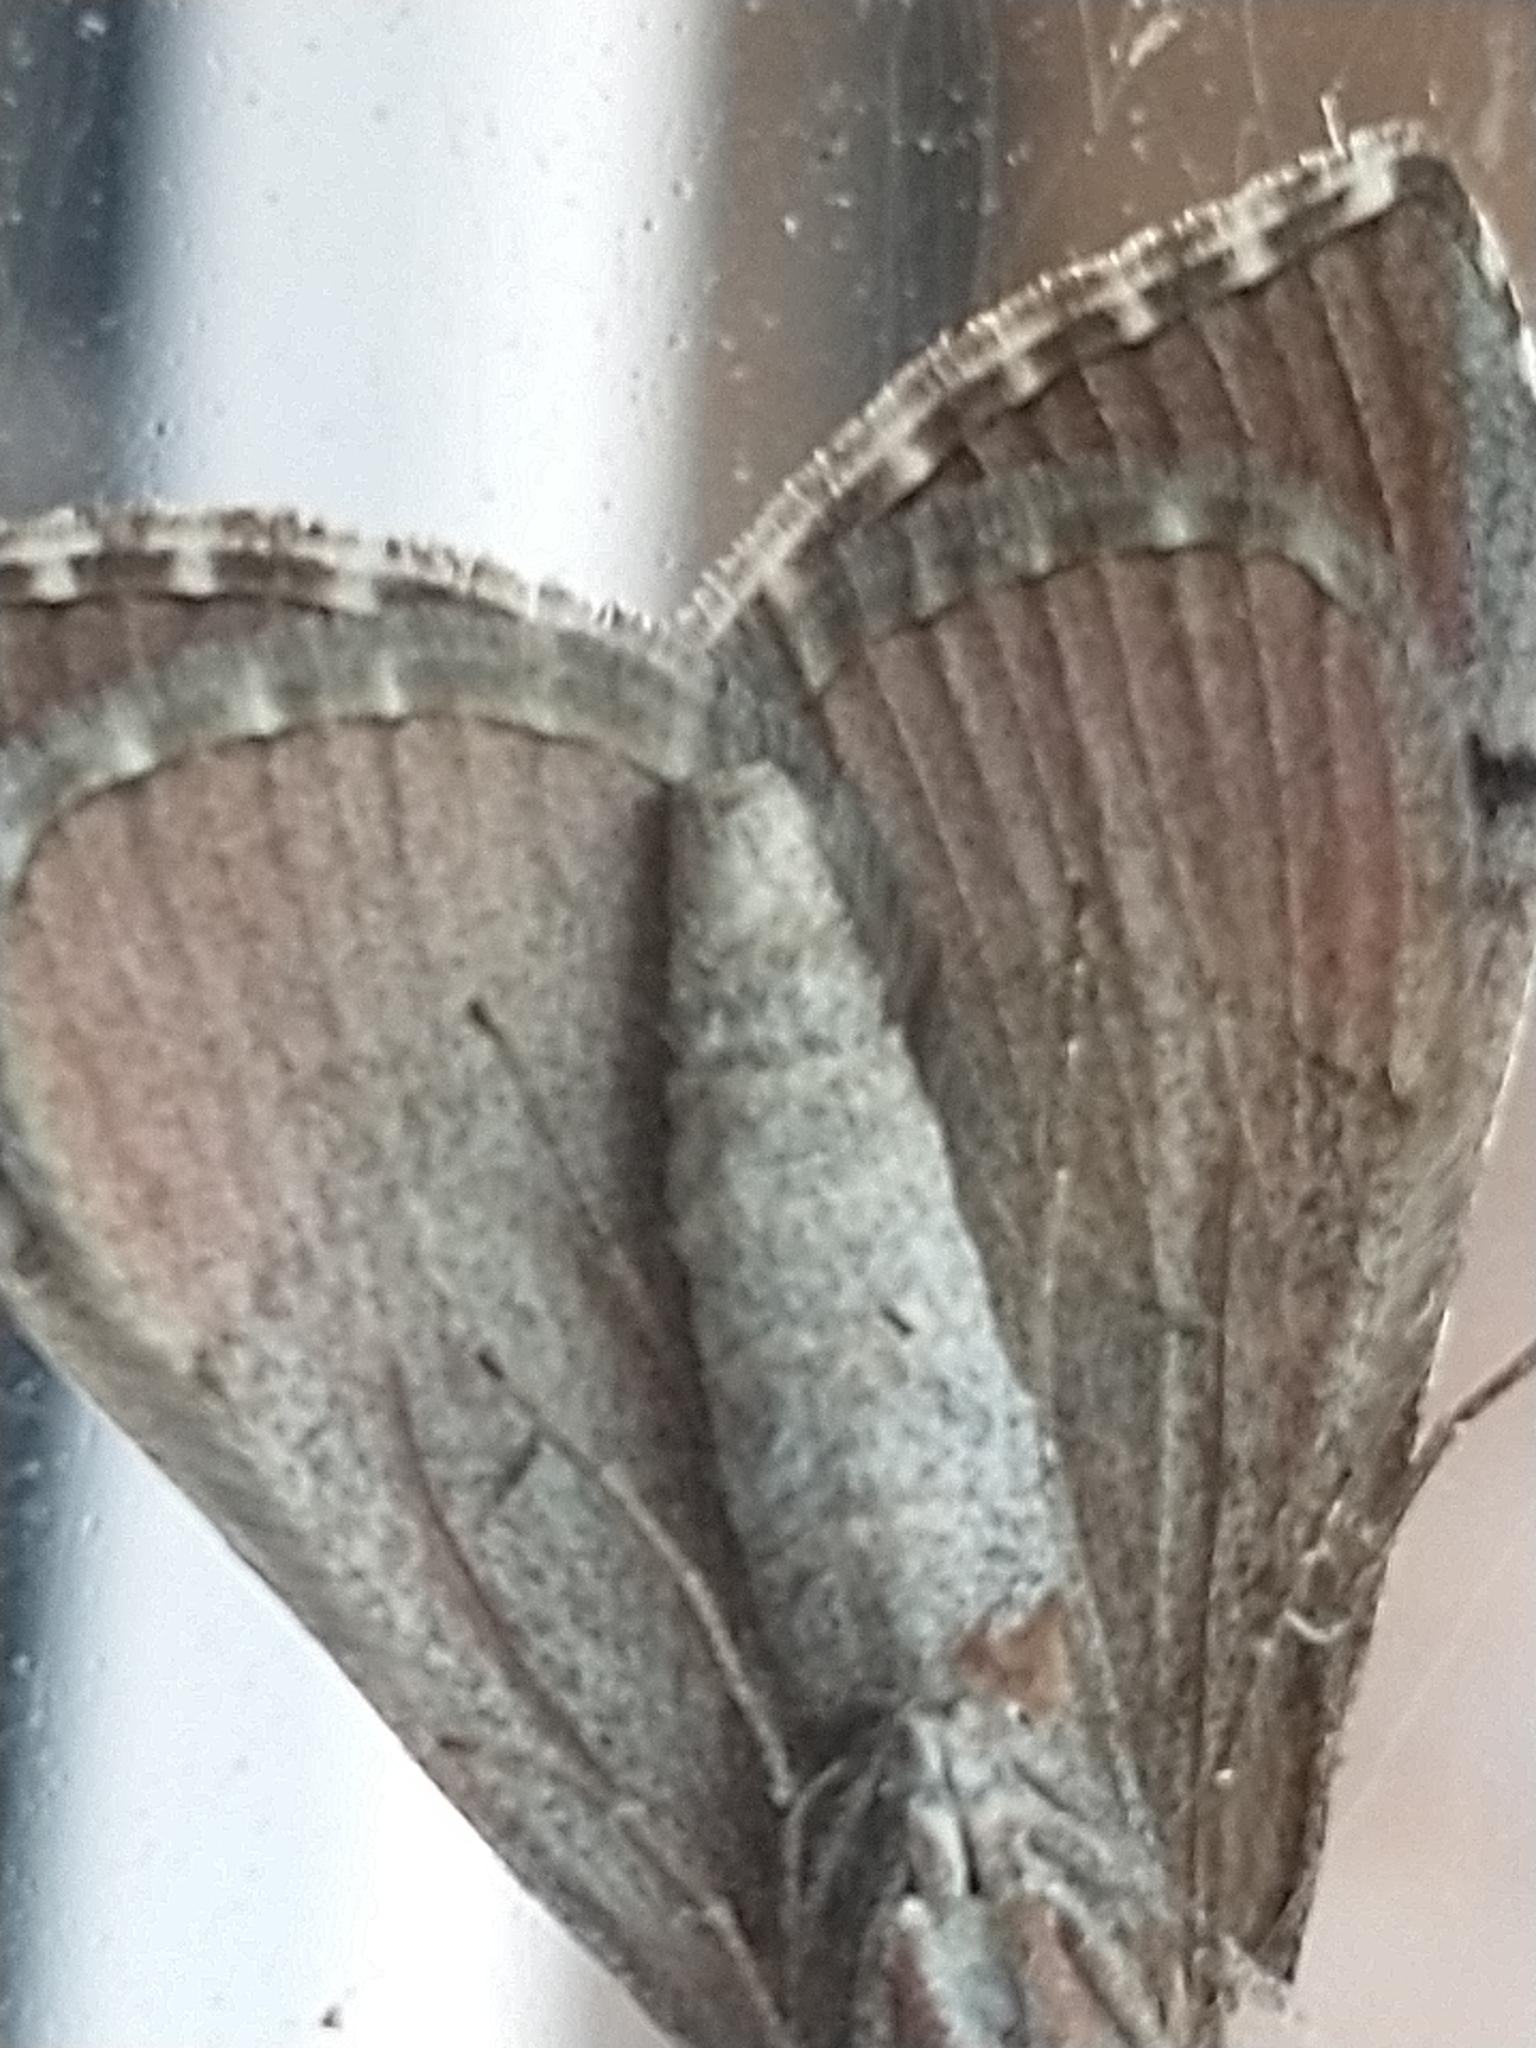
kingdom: Animalia
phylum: Arthropoda
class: Insecta
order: Lepidoptera
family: Geometridae
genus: Aplocera
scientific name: Aplocera plagiata
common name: Treble-bar
